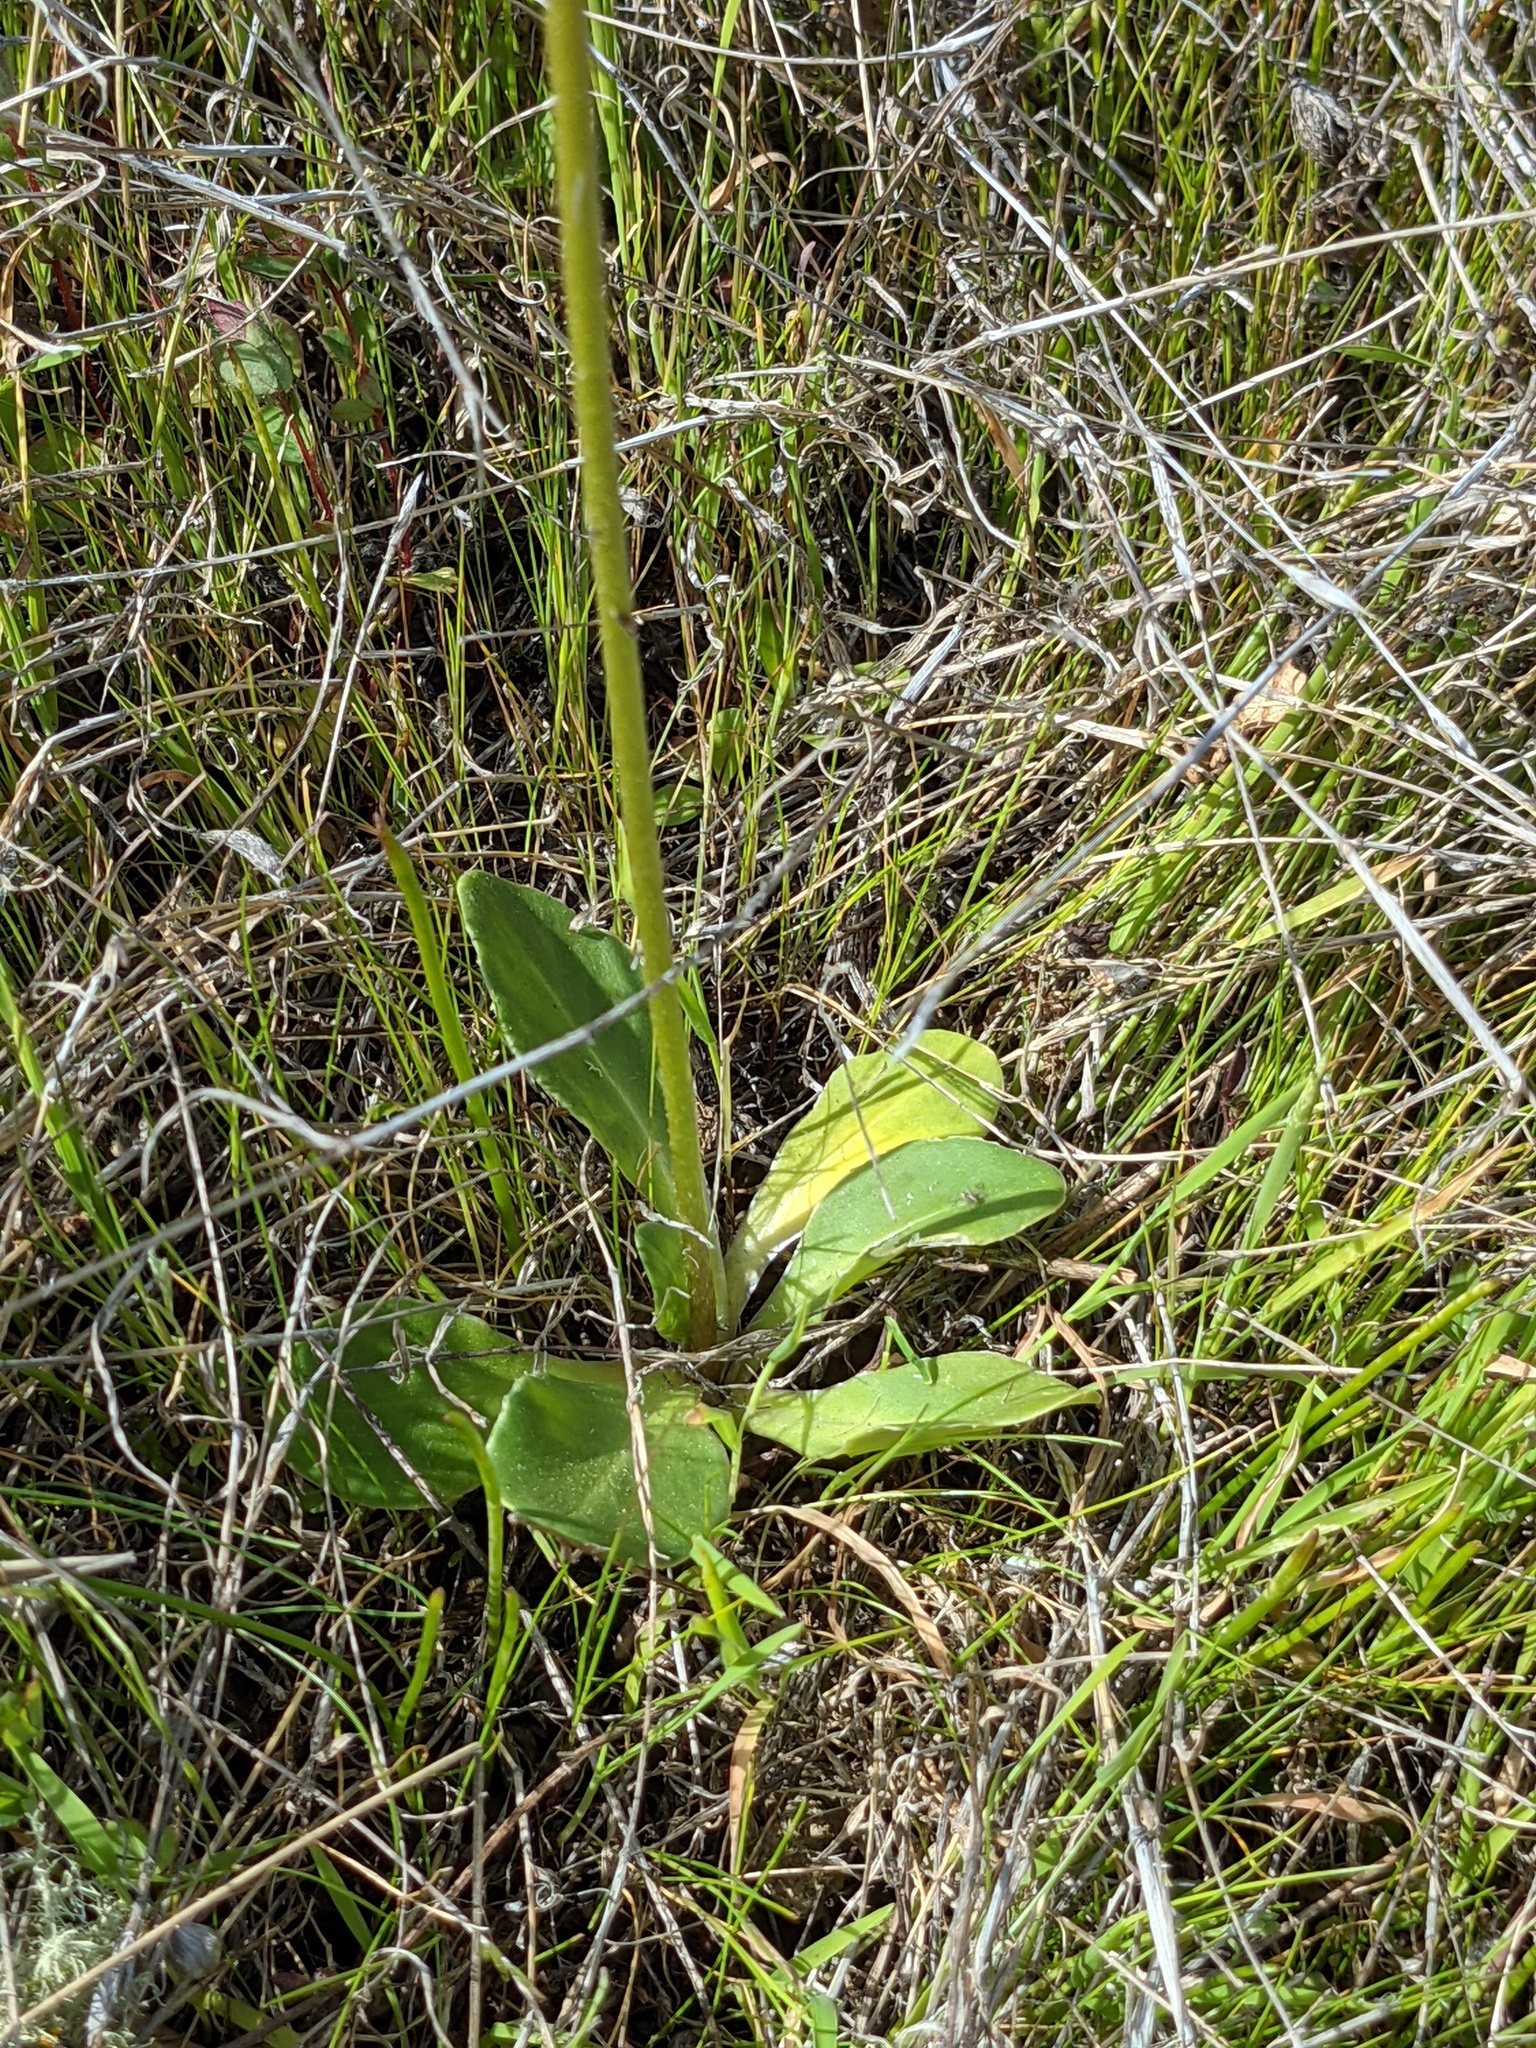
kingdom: Plantae
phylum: Tracheophyta
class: Magnoliopsida
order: Ericales
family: Primulaceae
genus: Dodecatheon
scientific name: Dodecatheon clevelandii
